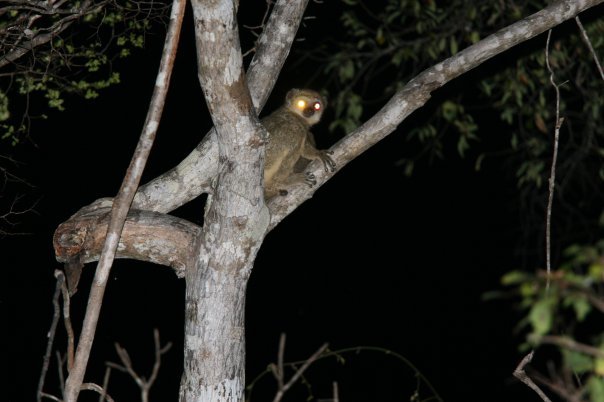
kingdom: Animalia
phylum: Chordata
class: Mammalia
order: Primates
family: Indriidae
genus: Avahi
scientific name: Avahi occidentalis
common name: Western woolly lemur
